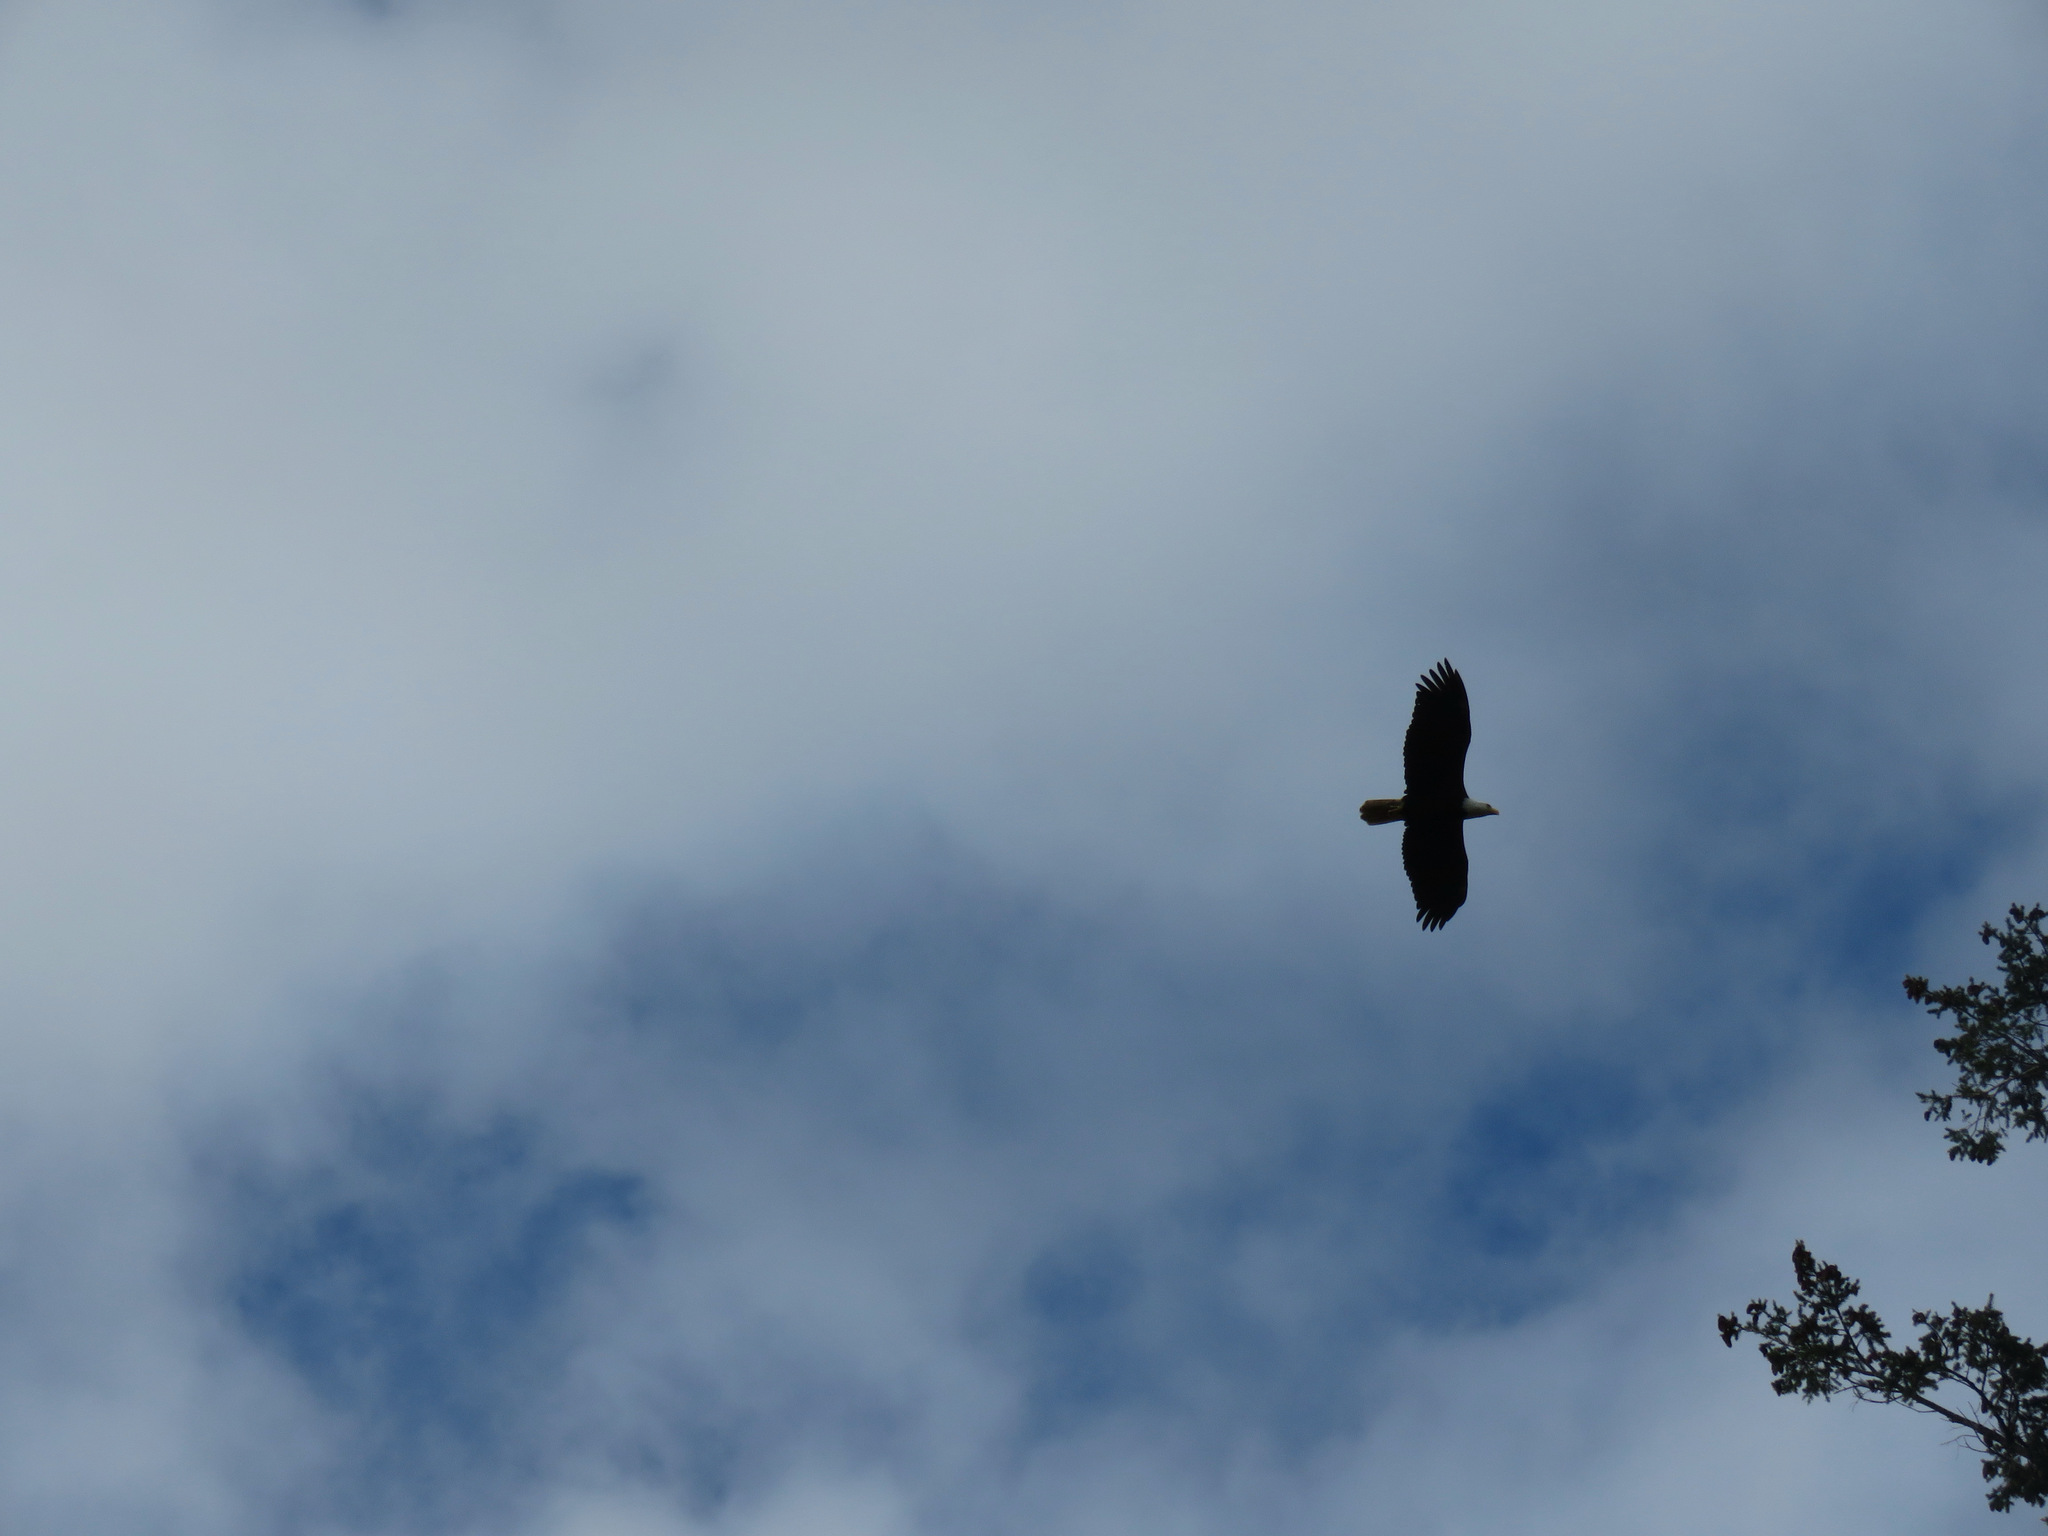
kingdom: Animalia
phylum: Chordata
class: Aves
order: Accipitriformes
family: Accipitridae
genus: Haliaeetus
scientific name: Haliaeetus leucocephalus
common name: Bald eagle
